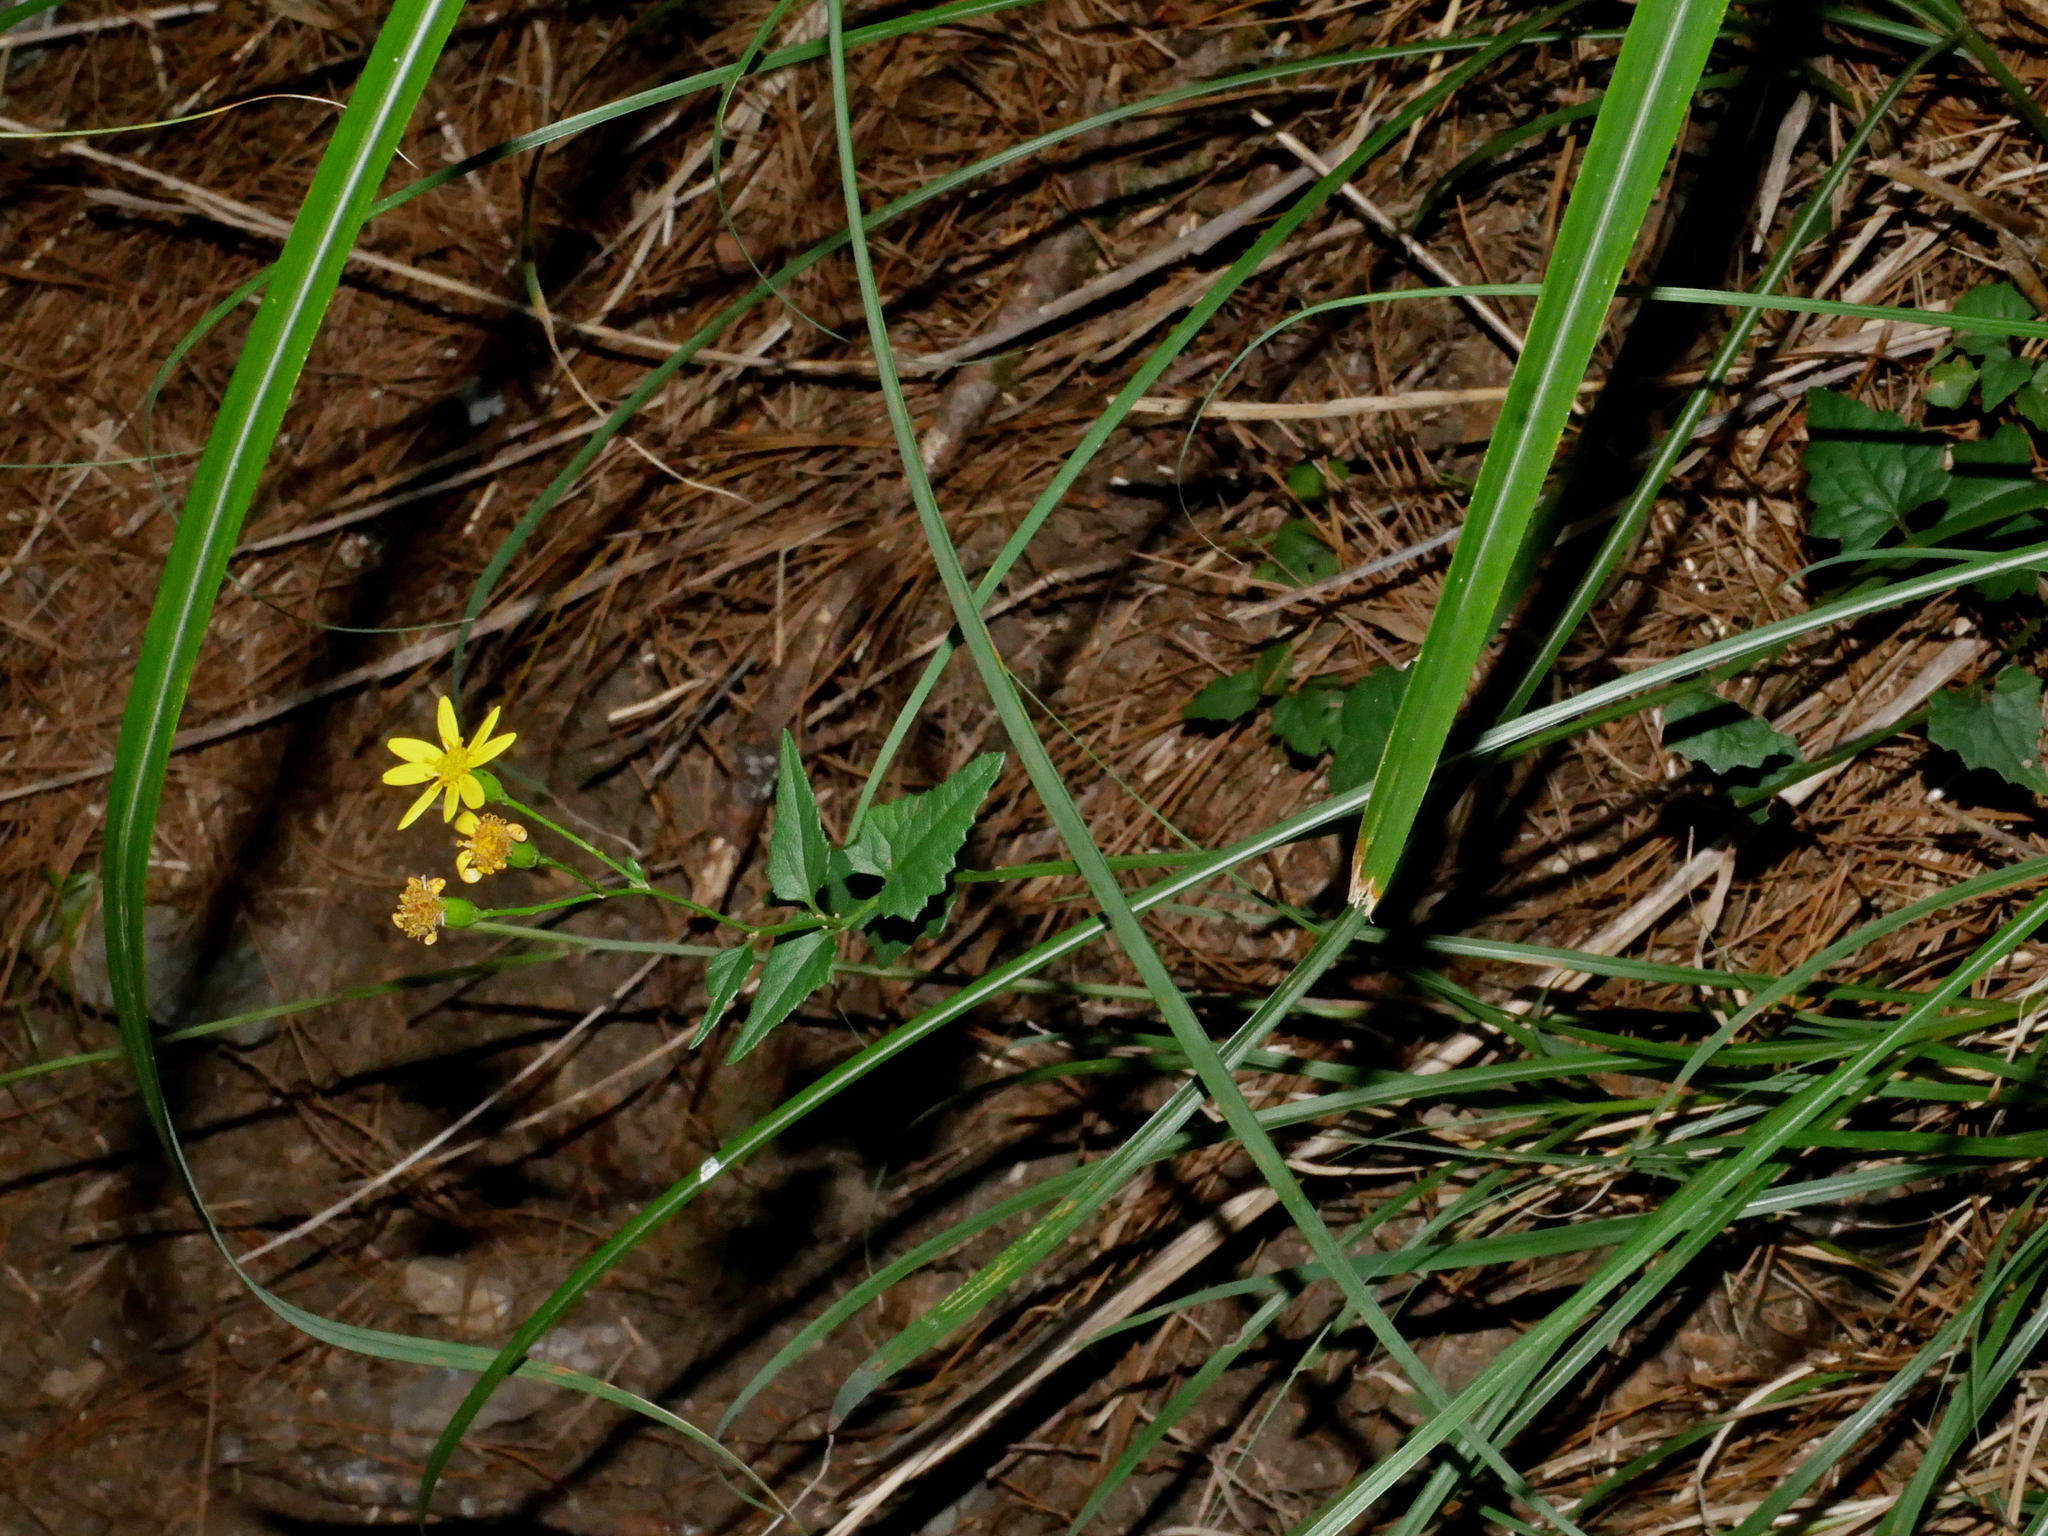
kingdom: Plantae
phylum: Tracheophyta
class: Magnoliopsida
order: Asterales
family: Asteraceae
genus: Senecio
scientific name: Senecio scandens
